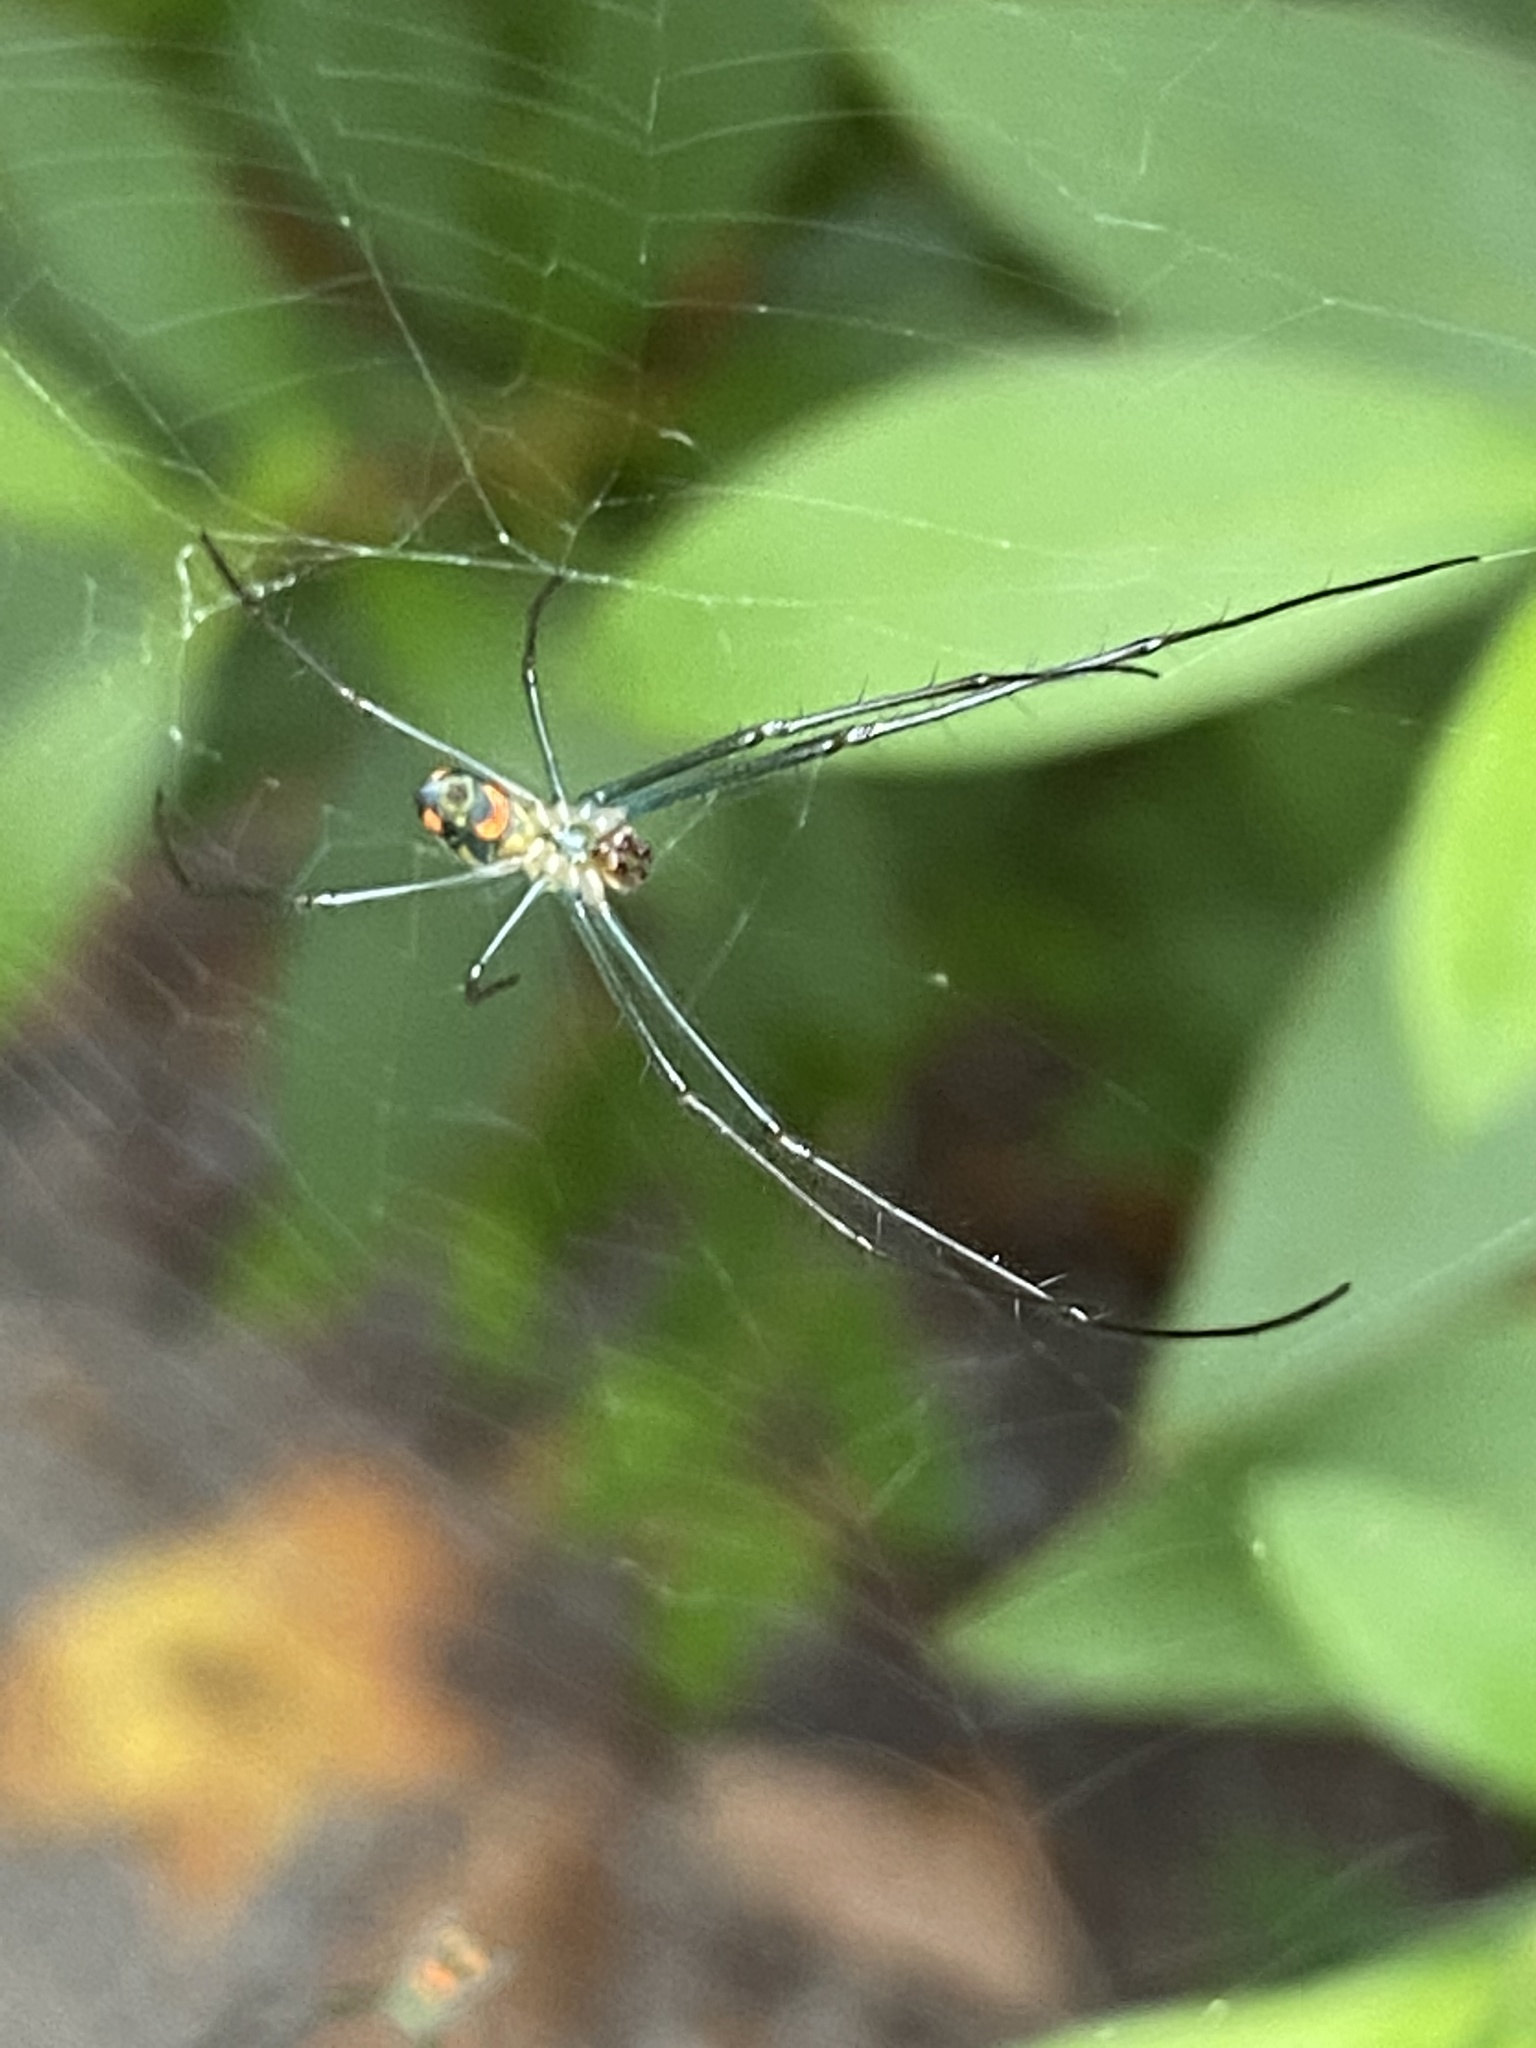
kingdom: Animalia
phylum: Arthropoda
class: Arachnida
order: Araneae
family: Tetragnathidae
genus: Leucauge
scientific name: Leucauge argyrobapta
